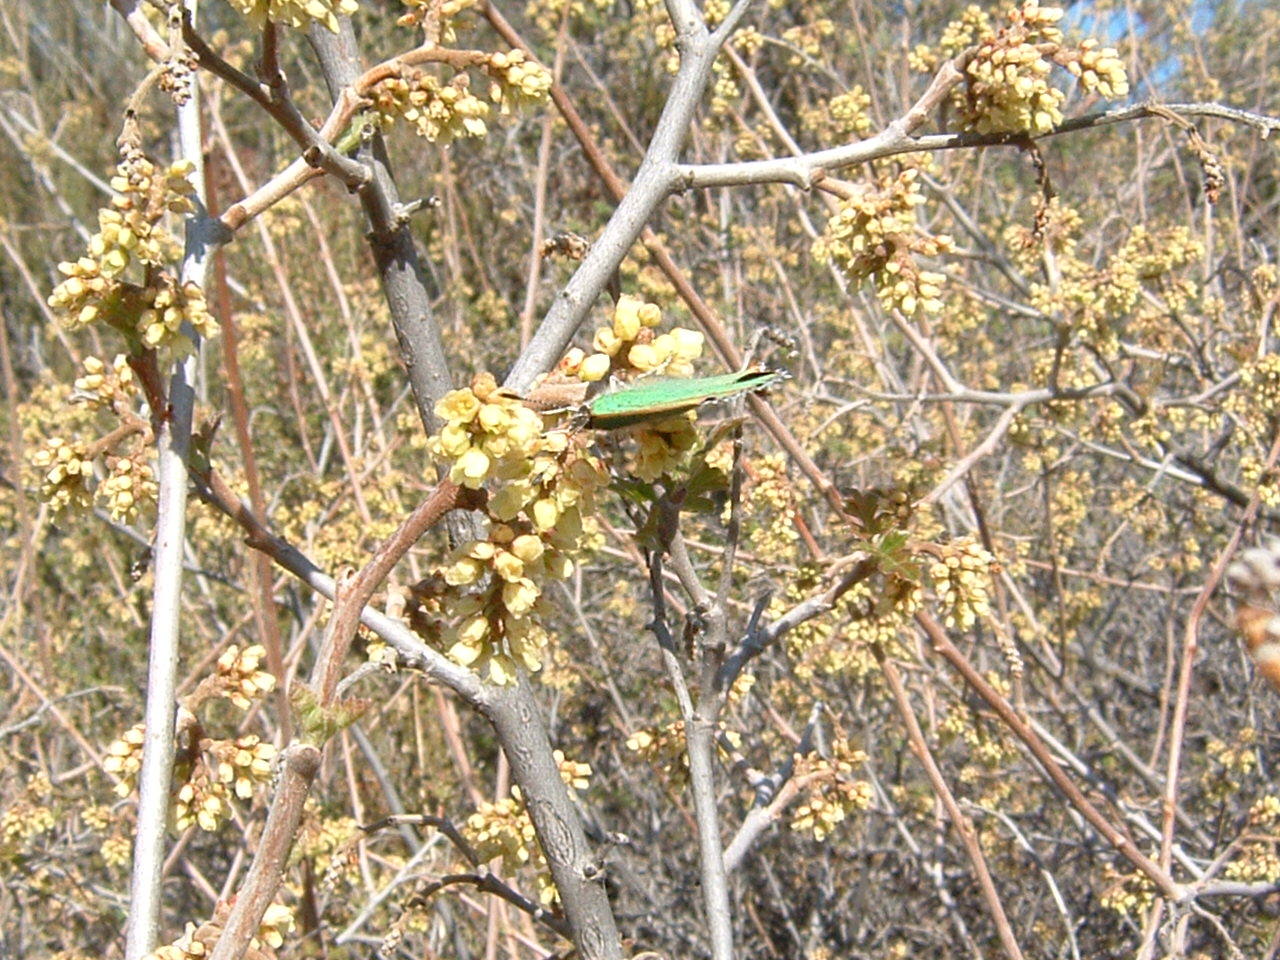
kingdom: Animalia
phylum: Arthropoda
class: Insecta
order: Lepidoptera
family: Lycaenidae
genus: Callophrys
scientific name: Callophrys dumetorum
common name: Bramble hairstreak
